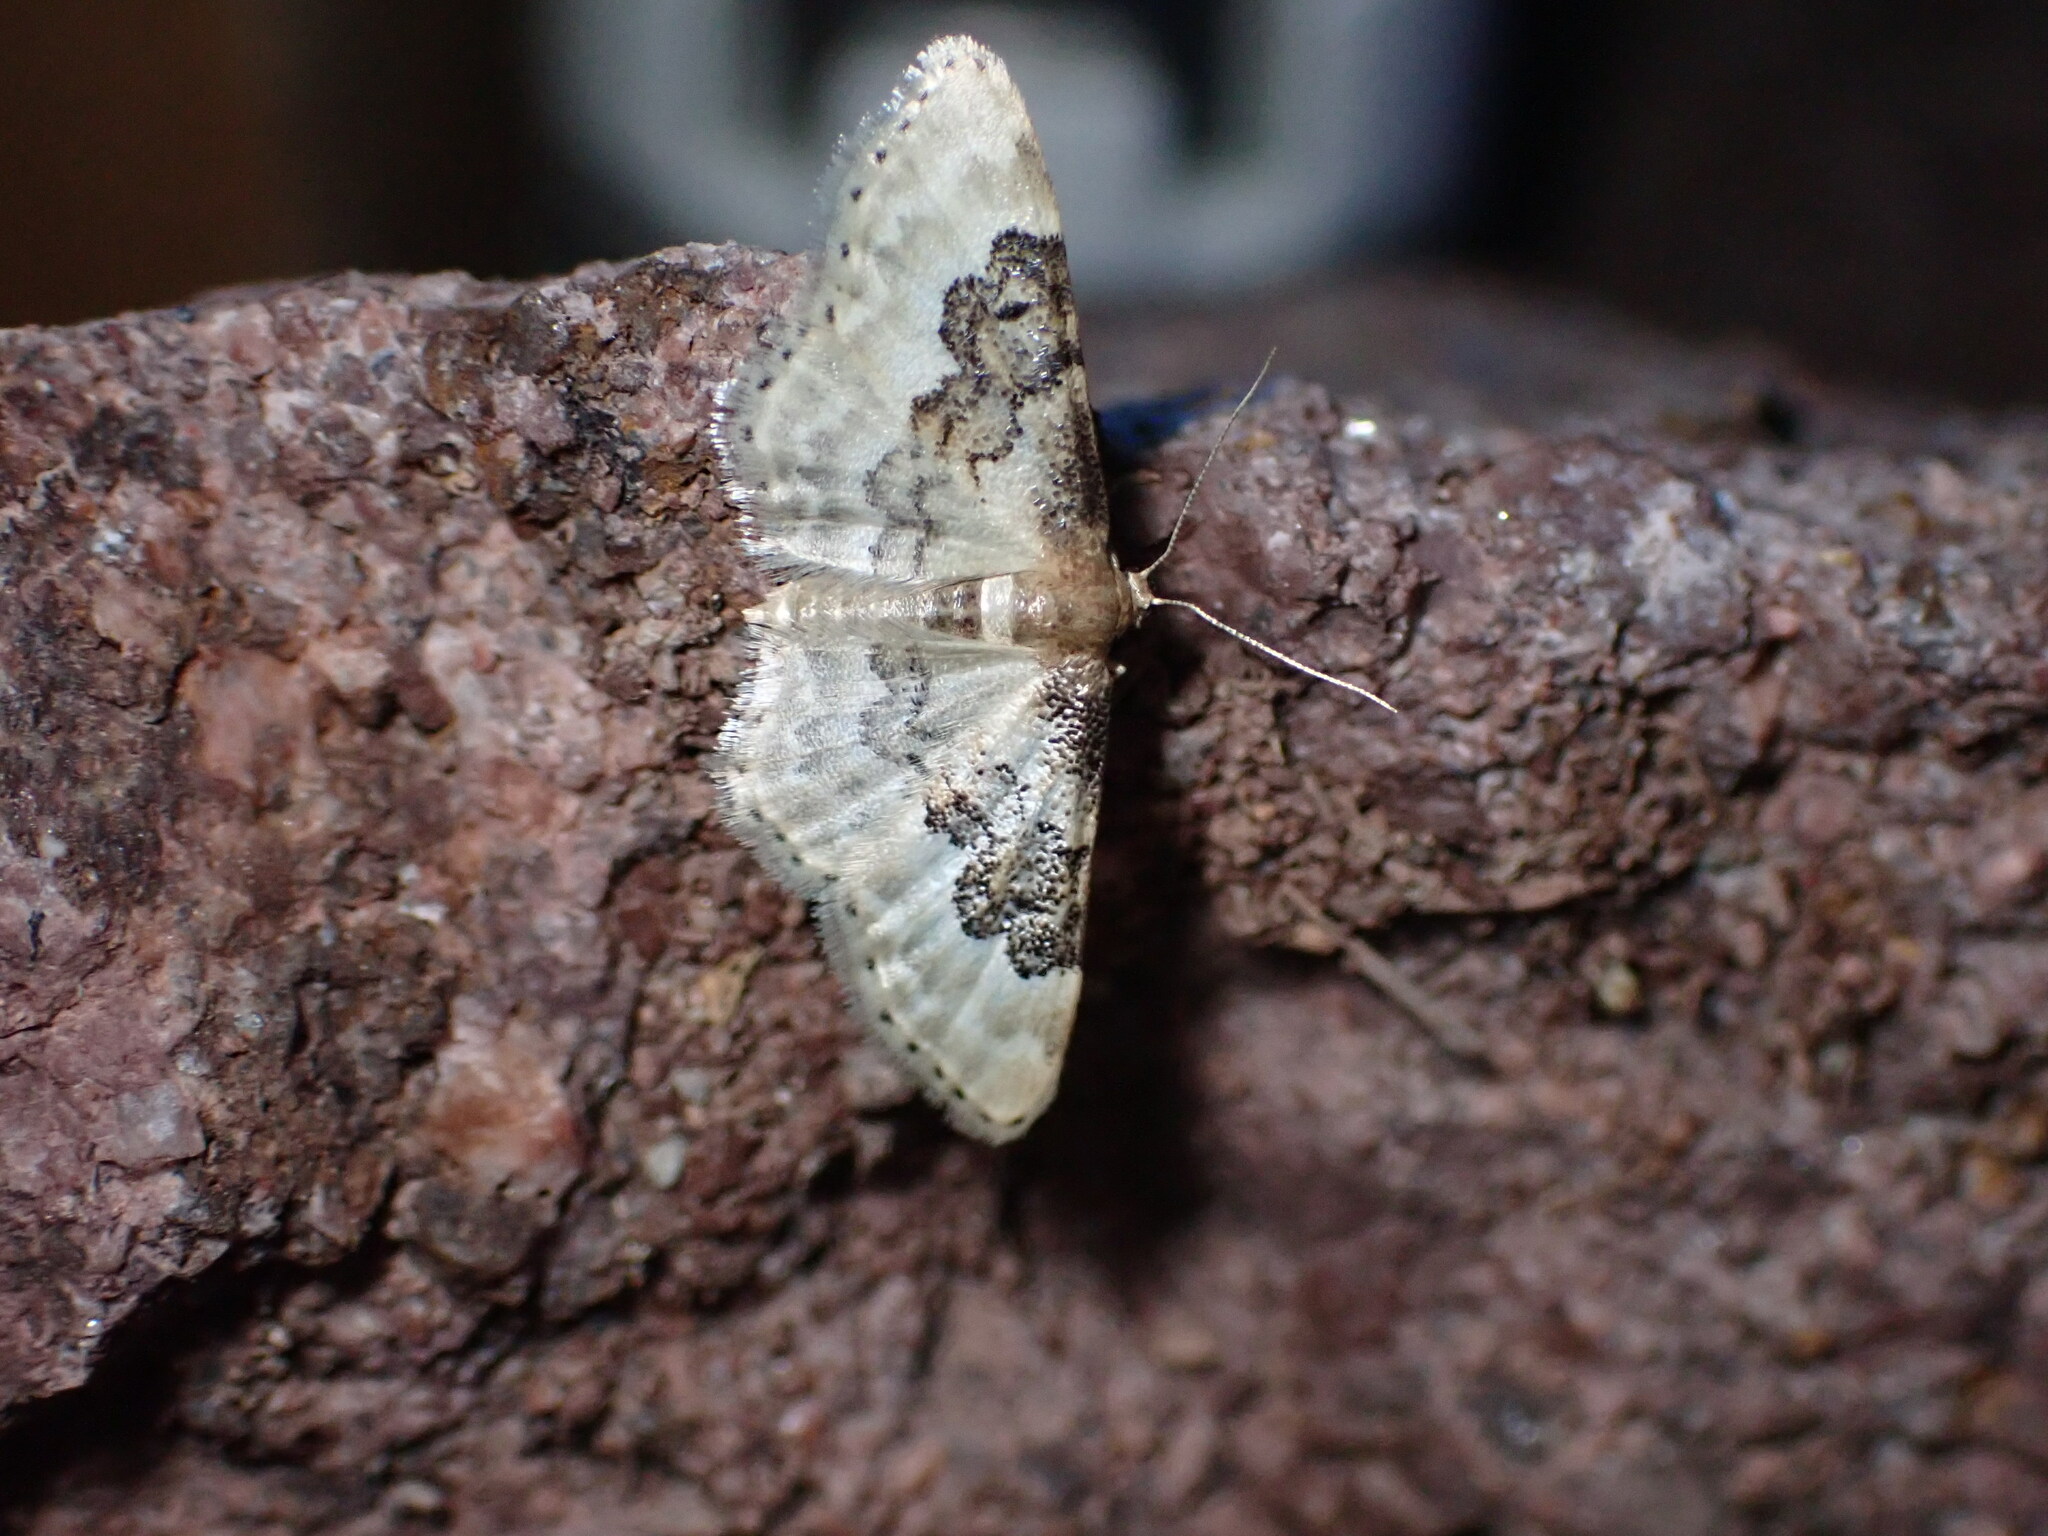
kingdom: Animalia
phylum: Arthropoda
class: Insecta
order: Lepidoptera
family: Geometridae
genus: Idaea
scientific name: Idaea rusticata
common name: Least carpet
